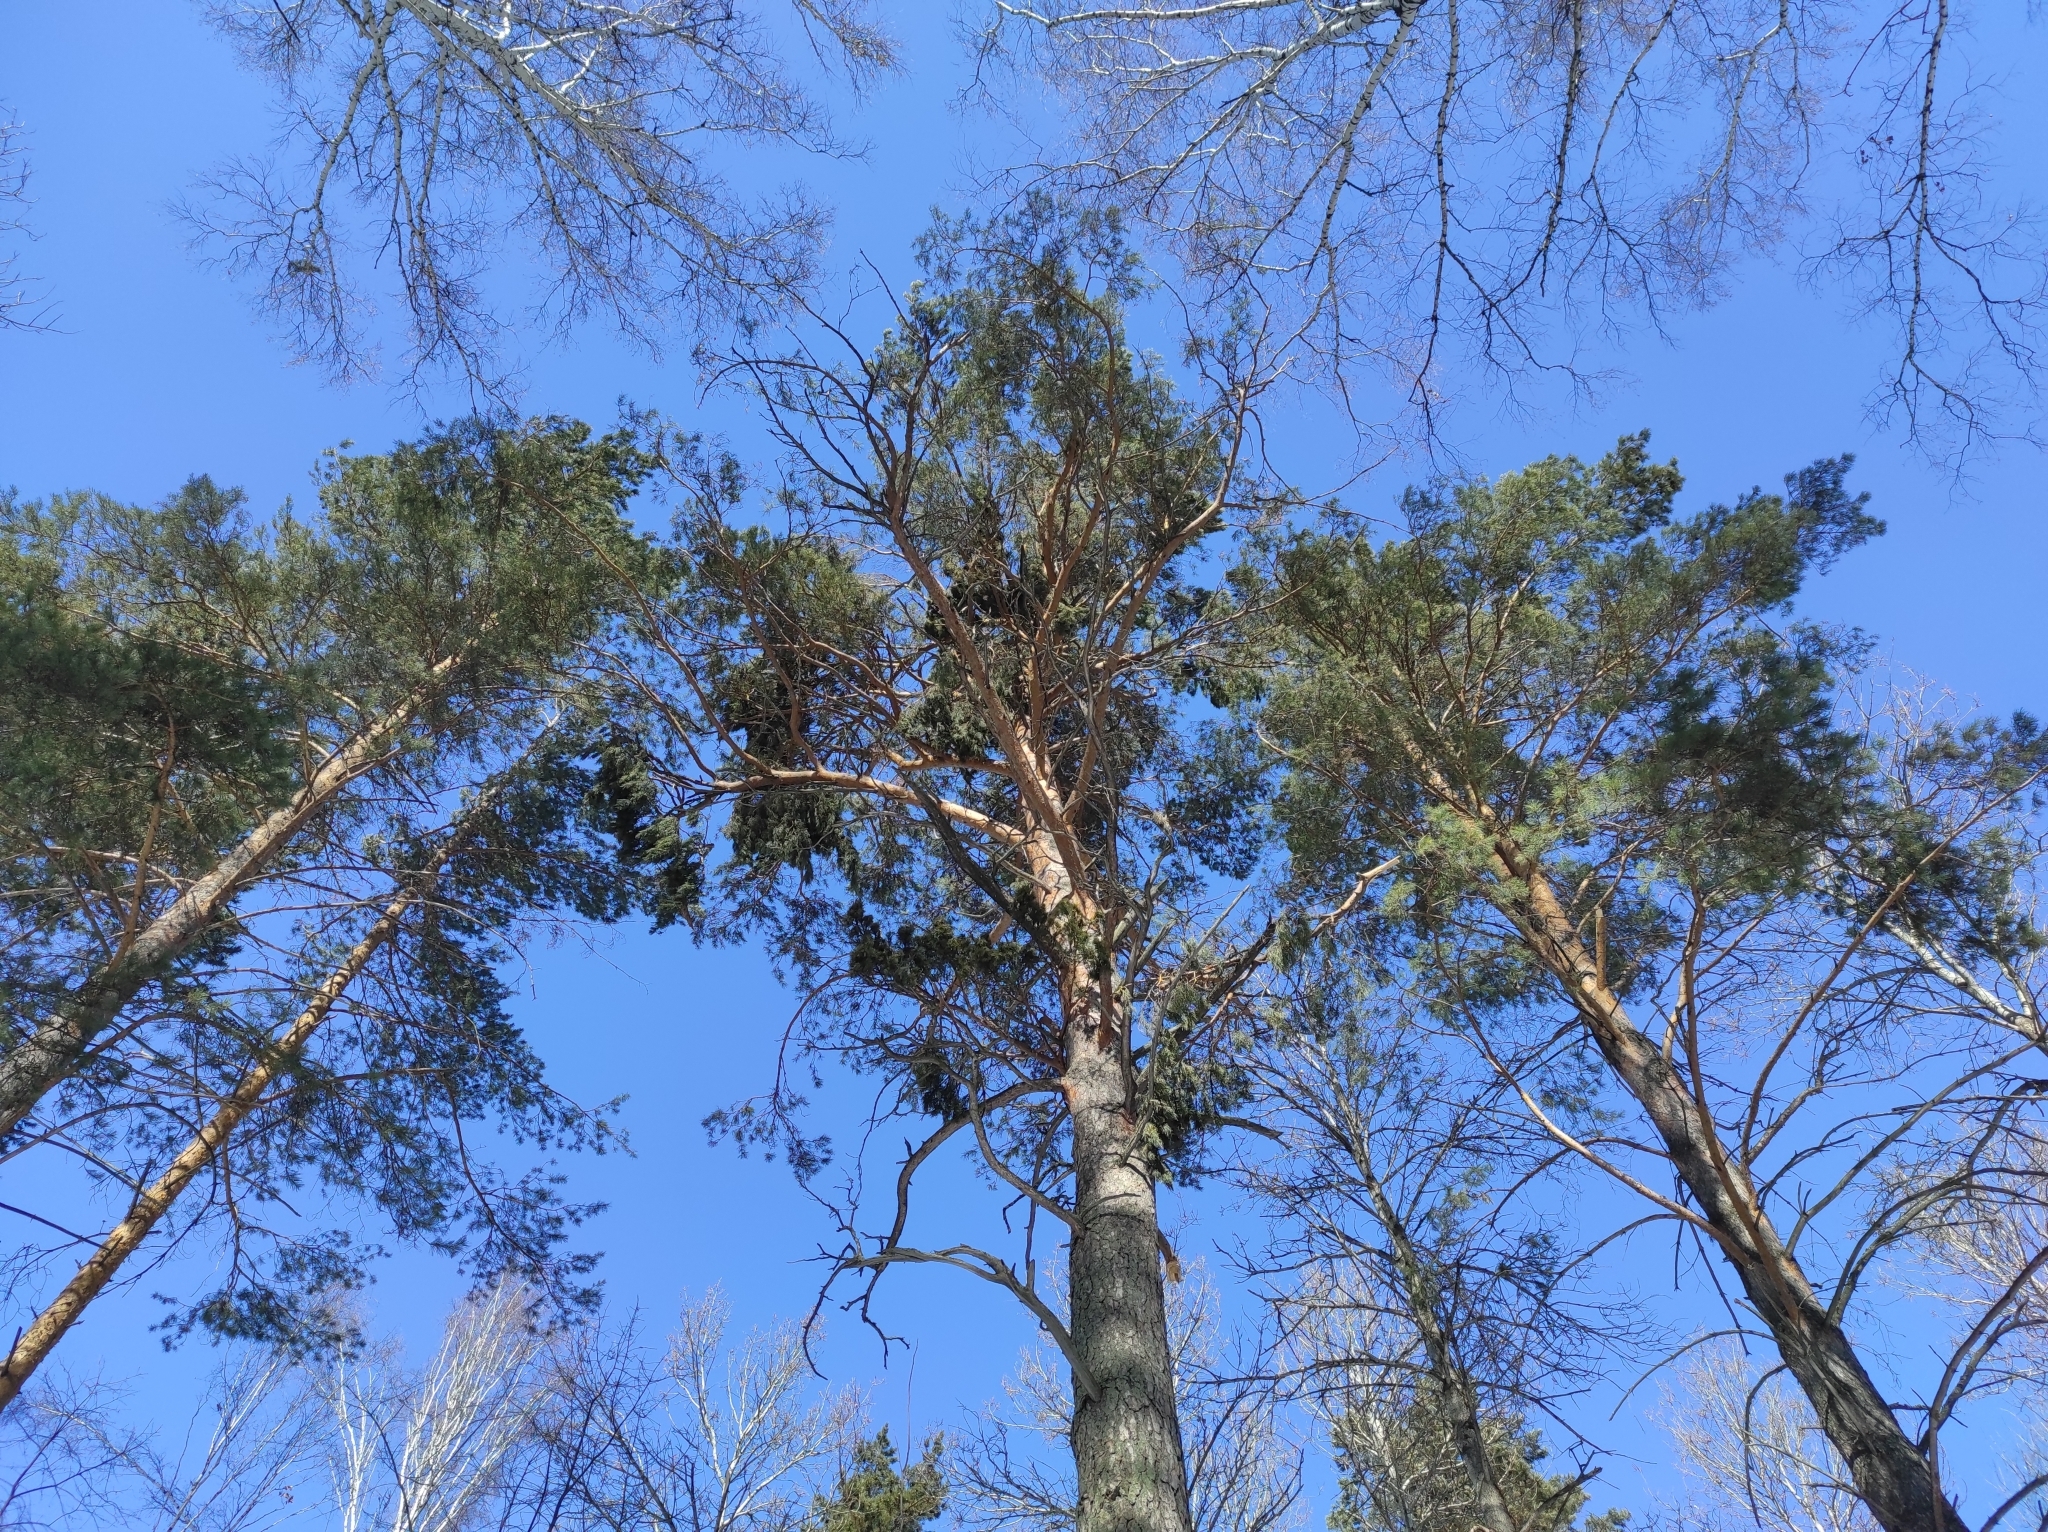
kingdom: Plantae
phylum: Tracheophyta
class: Pinopsida
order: Pinales
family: Pinaceae
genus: Pinus
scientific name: Pinus sylvestris
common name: Scots pine
